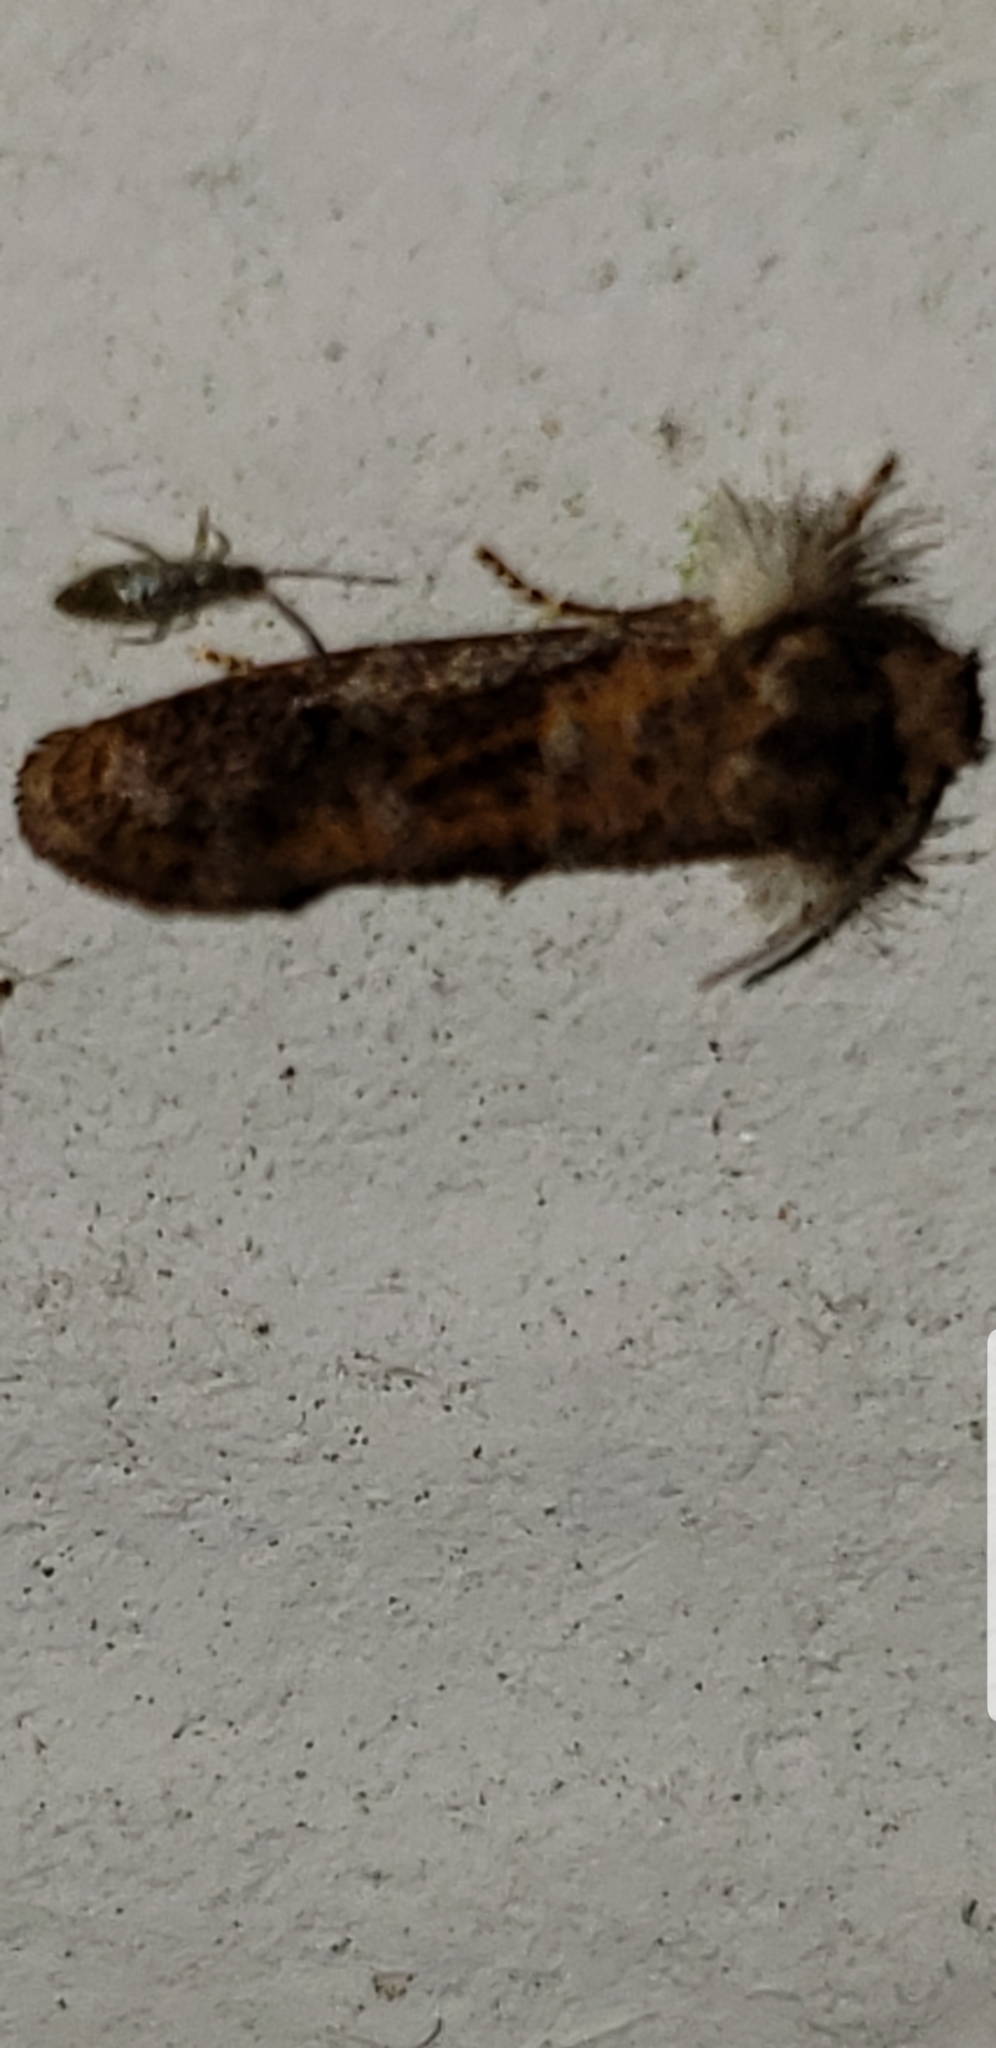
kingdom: Animalia
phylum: Arthropoda
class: Insecta
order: Lepidoptera
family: Tineidae
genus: Acrolophus
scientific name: Acrolophus panamae
